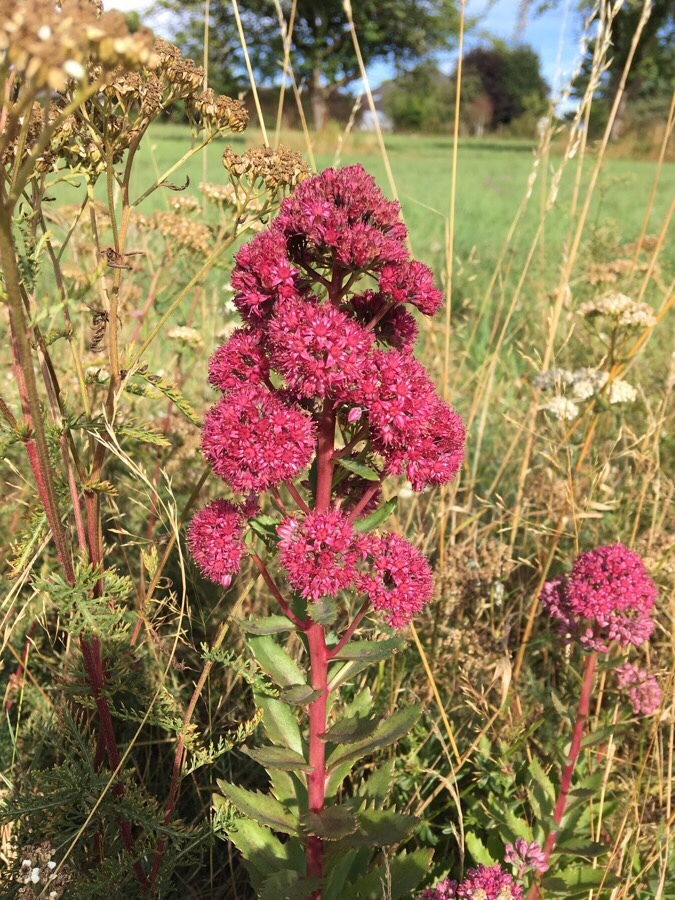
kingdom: Plantae
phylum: Tracheophyta
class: Magnoliopsida
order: Dipsacales
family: Caprifoliaceae
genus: Centranthus
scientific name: Centranthus ruber
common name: Red valerian
